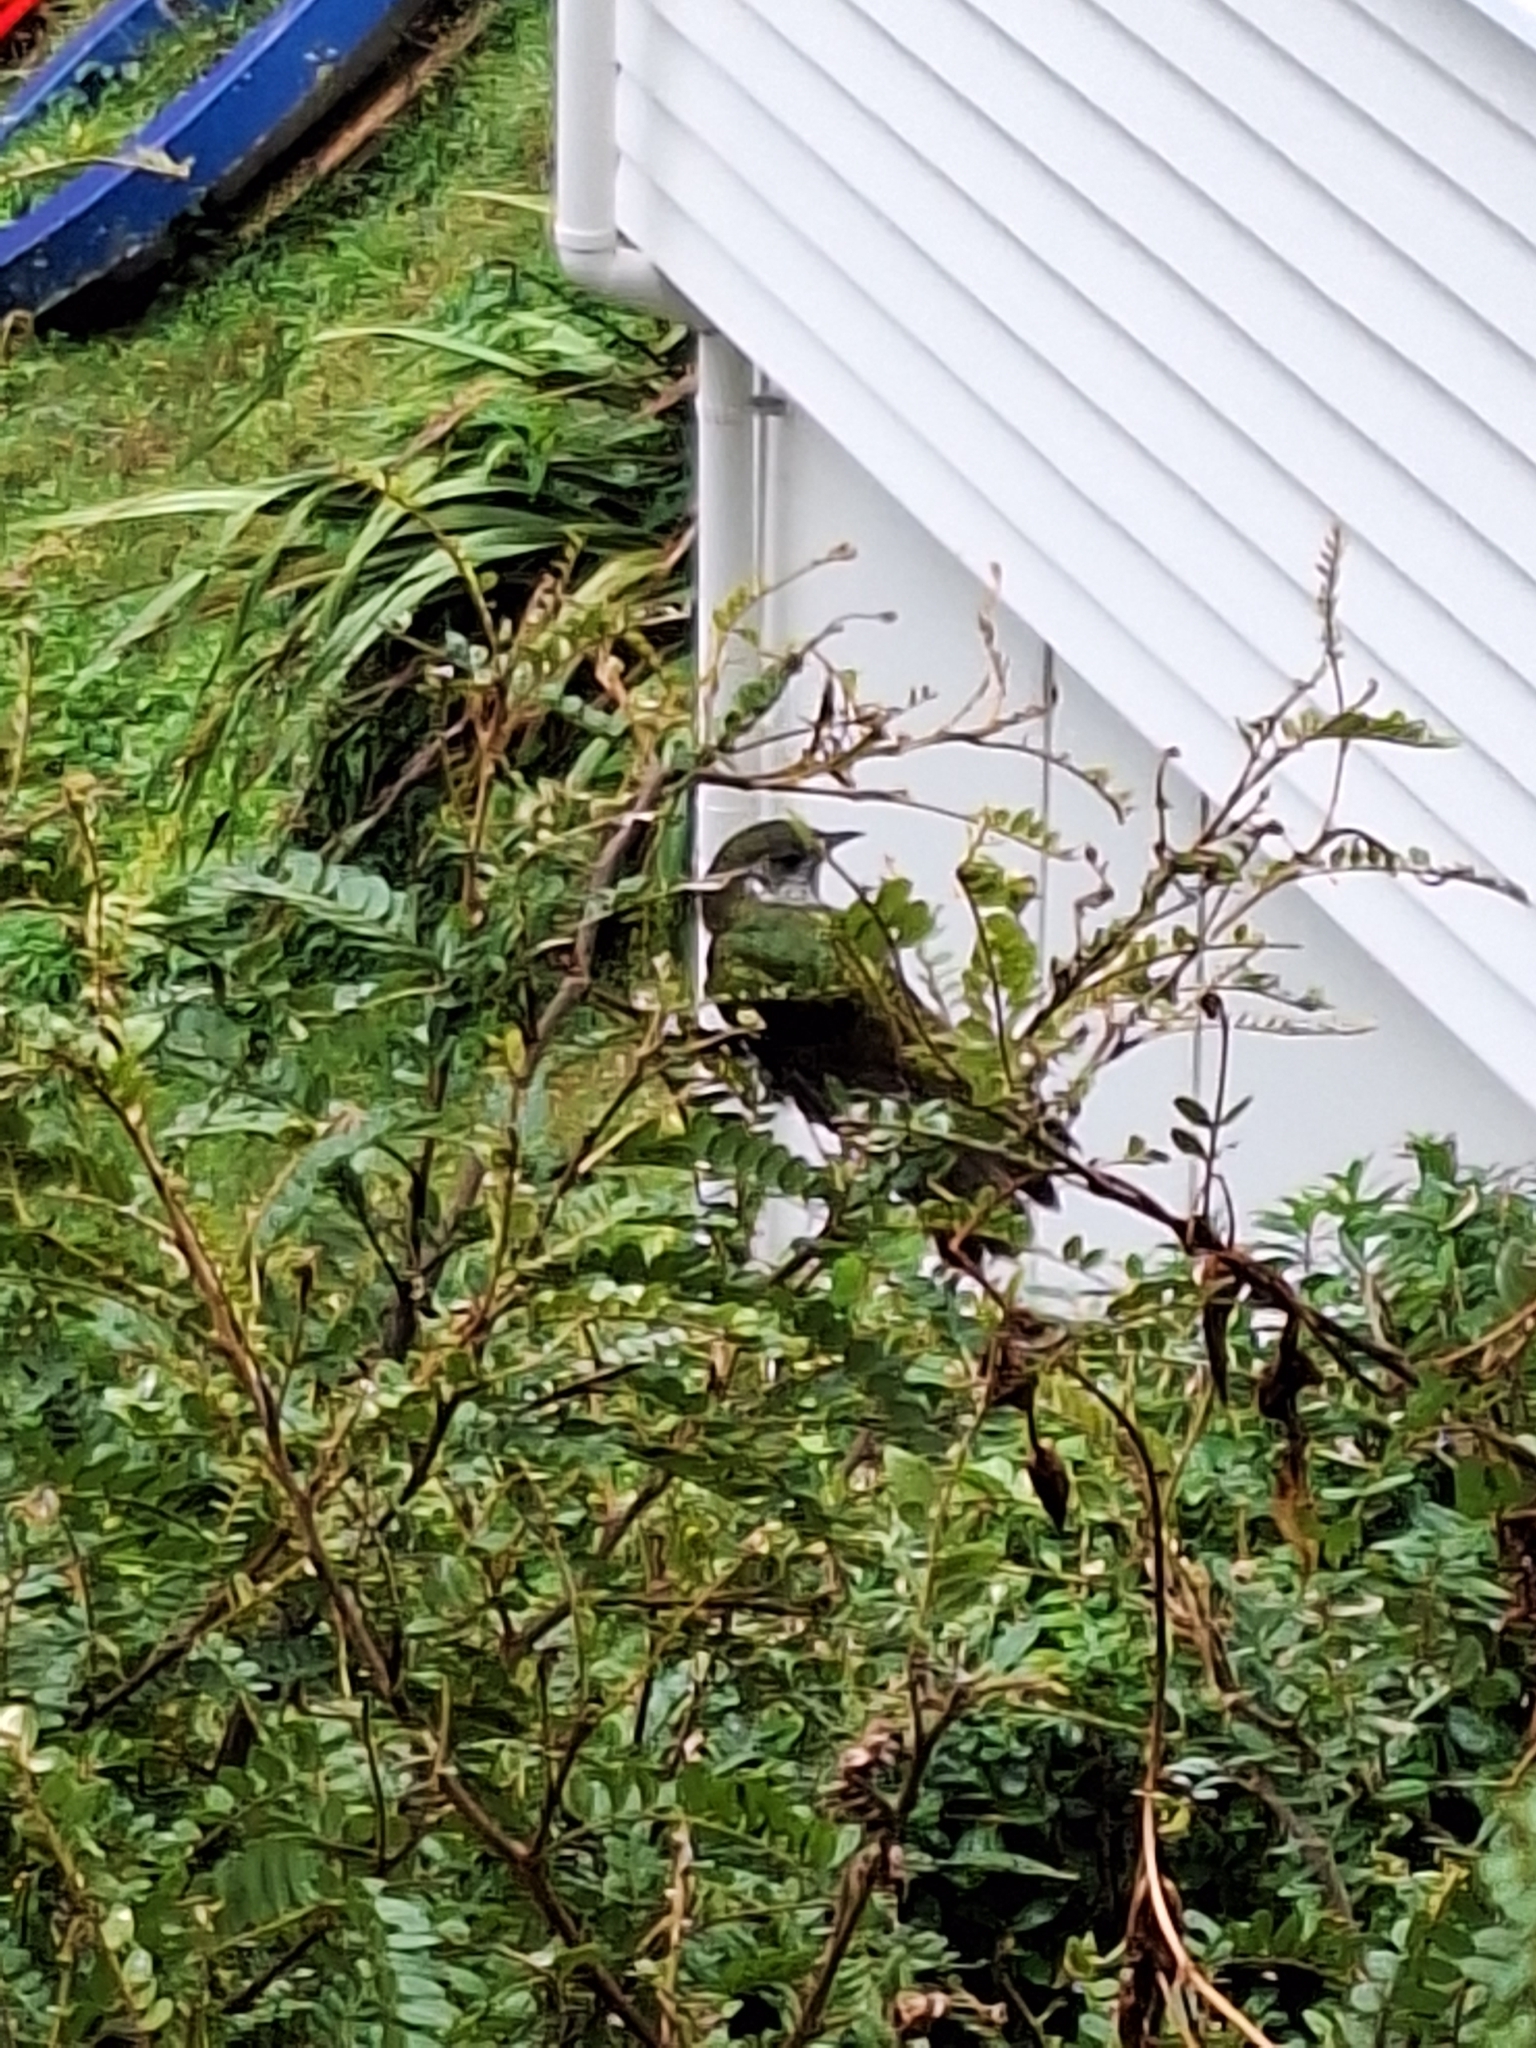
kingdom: Animalia
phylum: Chordata
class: Aves
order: Cuculiformes
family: Cuculidae
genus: Chrysococcyx
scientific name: Chrysococcyx lucidus
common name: Shining bronze cuckoo
